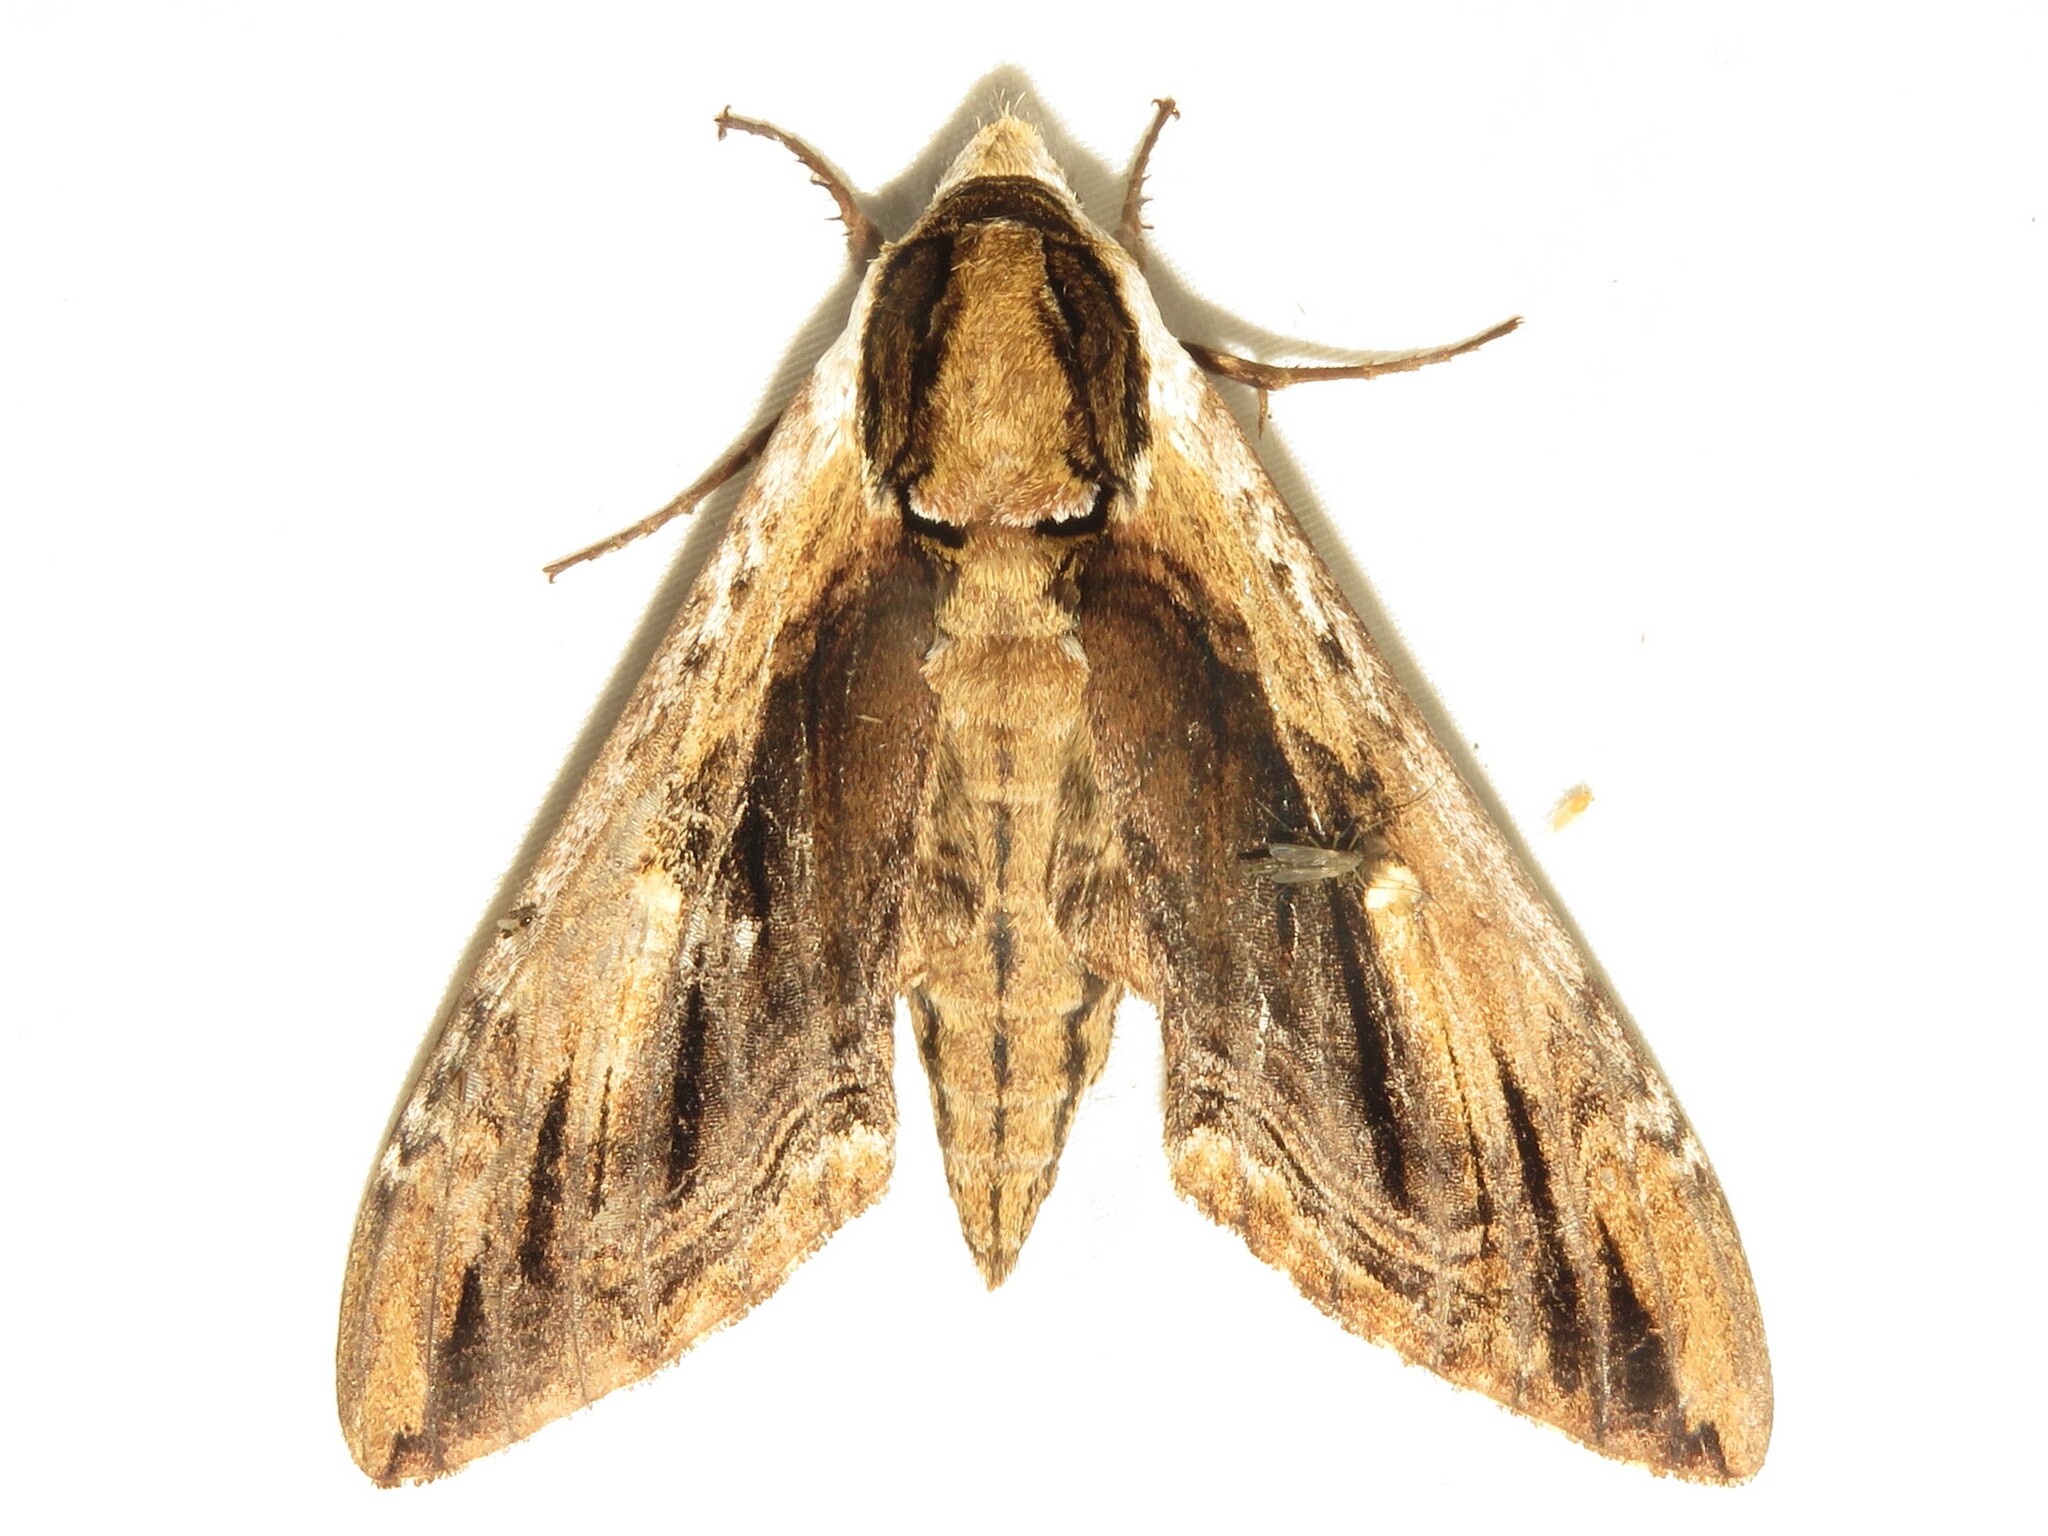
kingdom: Animalia
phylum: Arthropoda
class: Insecta
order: Lepidoptera
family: Sphingidae
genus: Ceratomia
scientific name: Ceratomia amyntor
